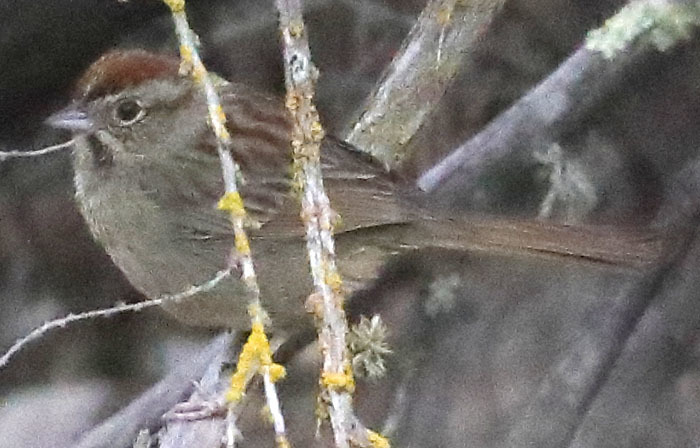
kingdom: Animalia
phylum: Chordata
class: Aves
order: Passeriformes
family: Passerellidae
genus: Aimophila
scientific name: Aimophila ruficeps
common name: Rufous-crowned sparrow
